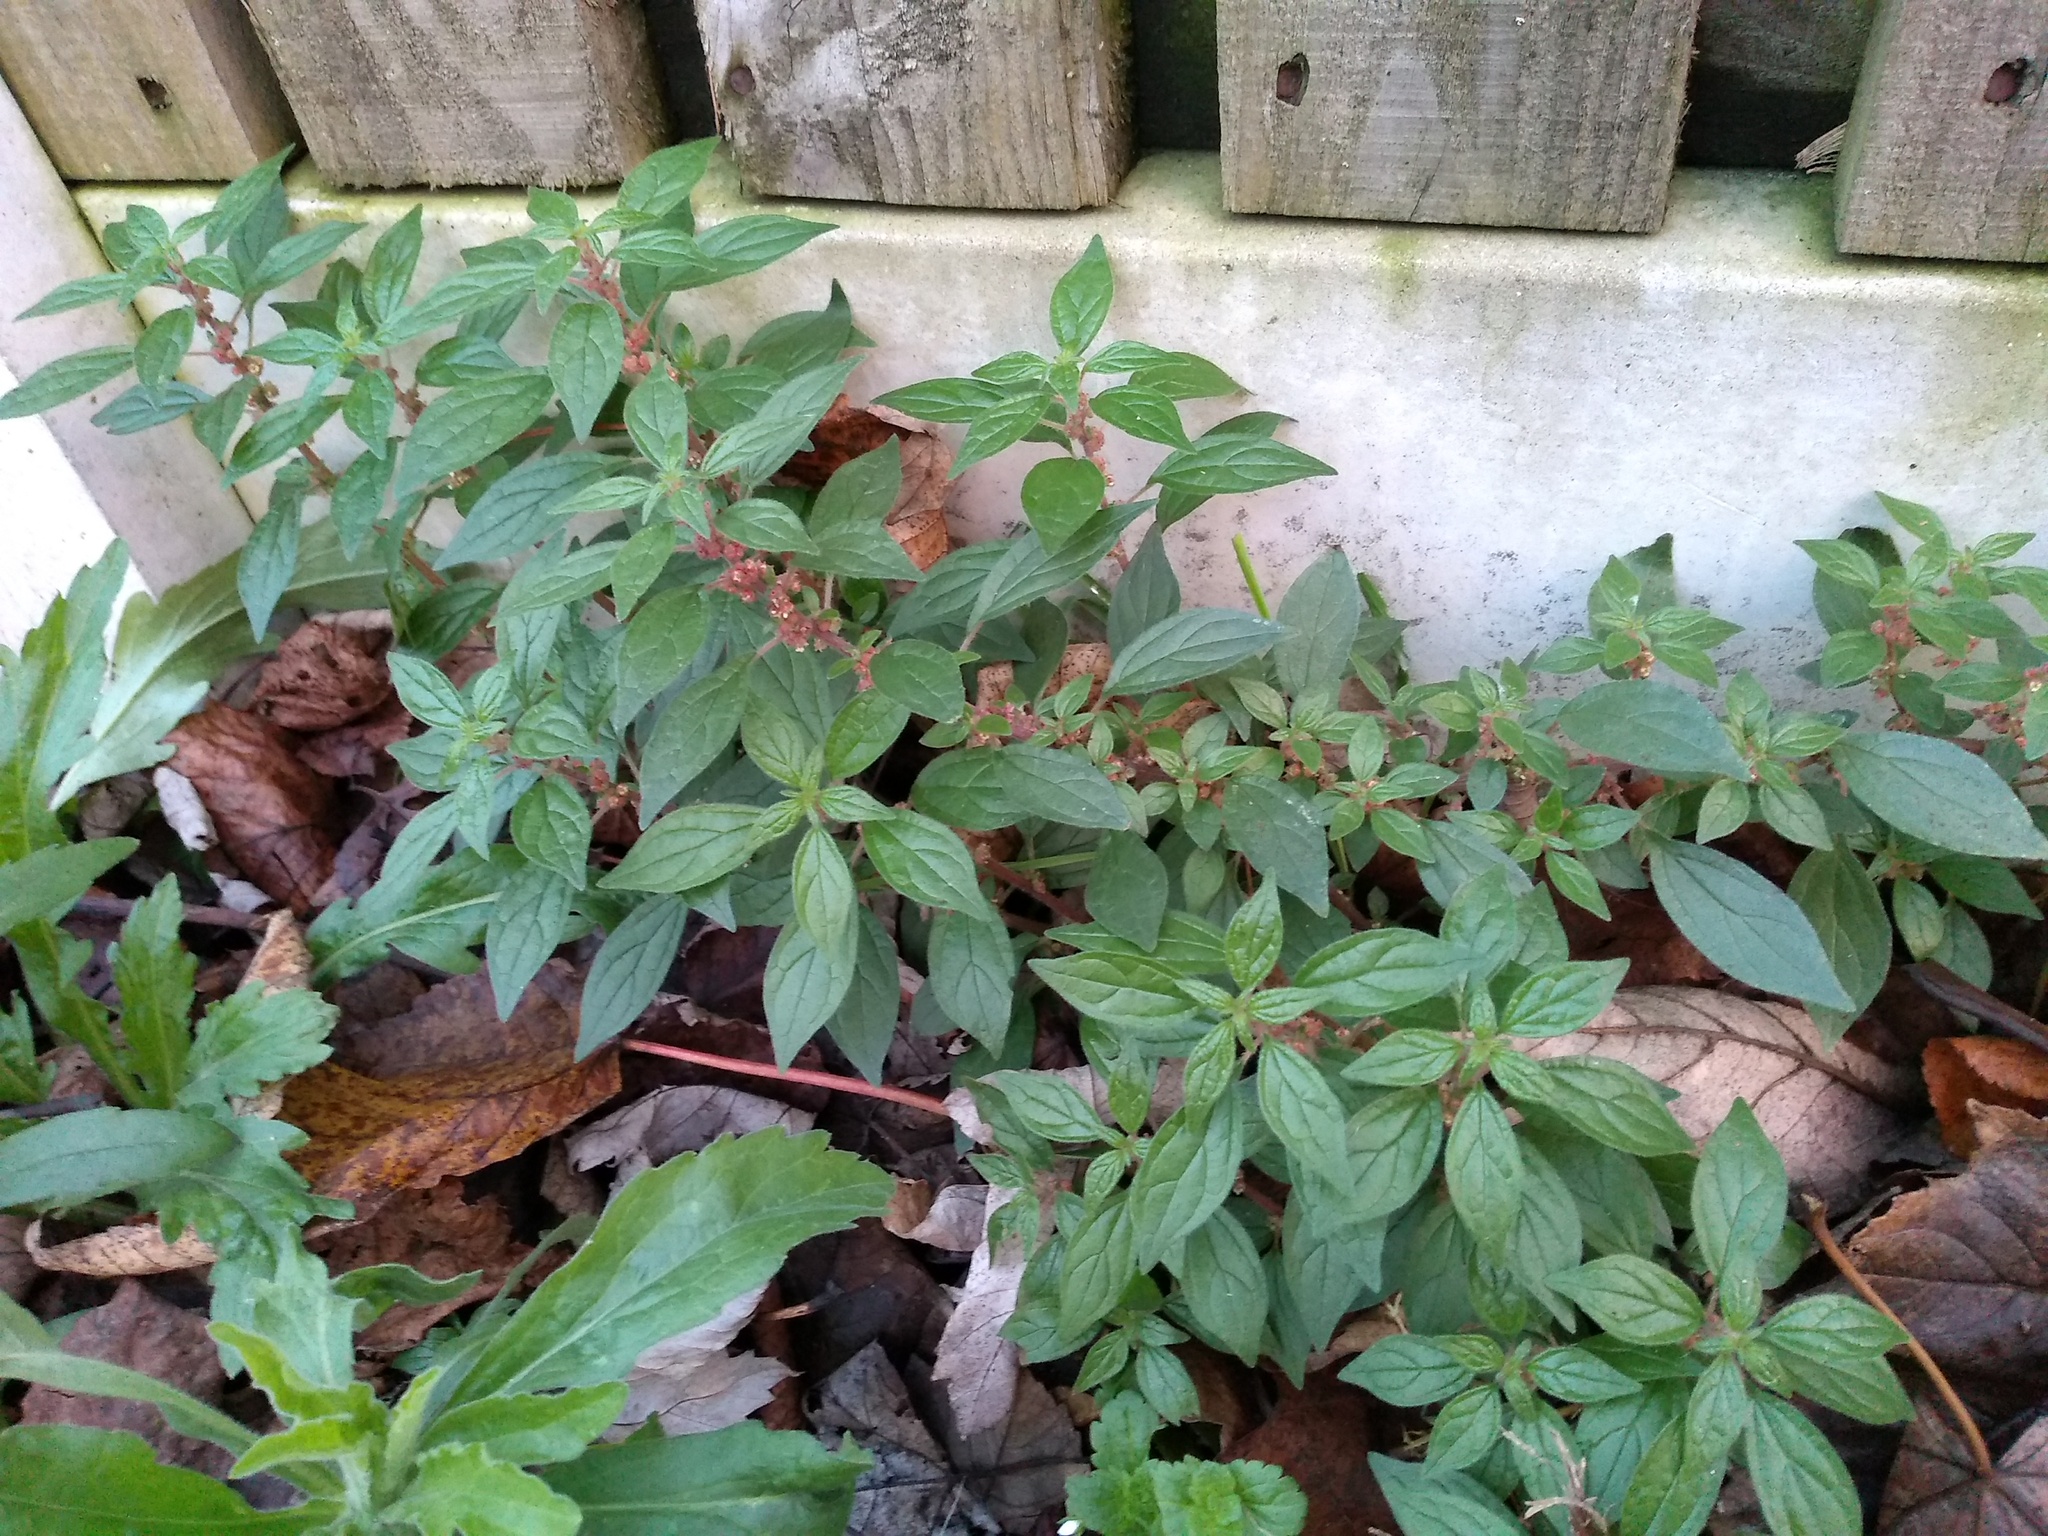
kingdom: Plantae
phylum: Tracheophyta
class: Magnoliopsida
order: Rosales
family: Urticaceae
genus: Parietaria
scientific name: Parietaria judaica
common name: Pellitory-of-the-wall
